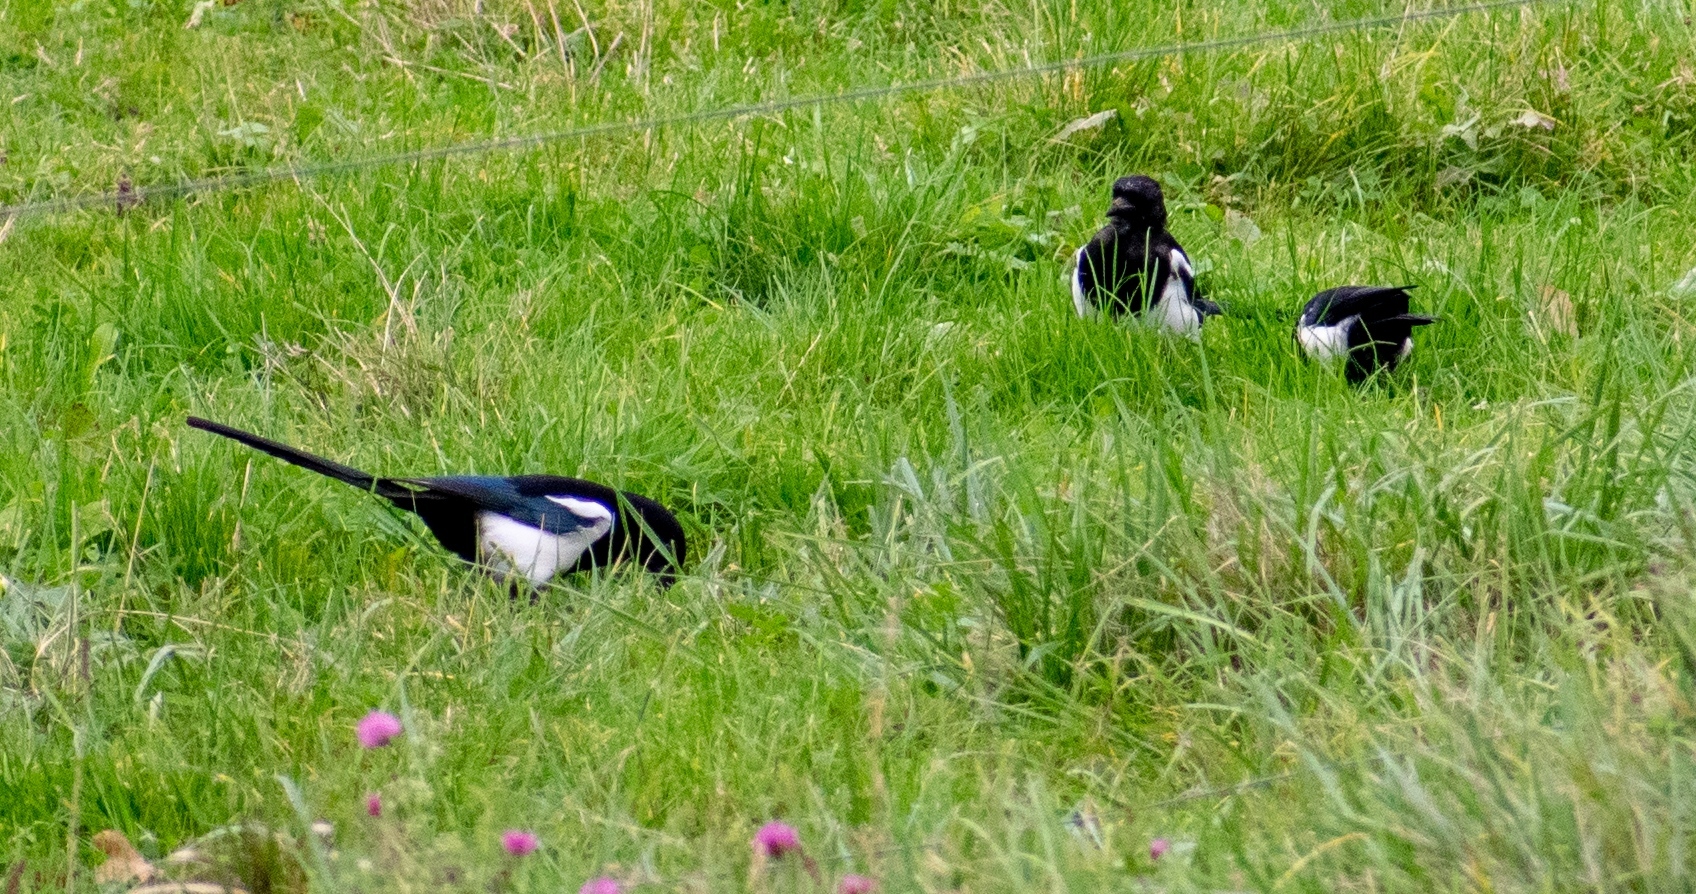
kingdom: Animalia
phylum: Chordata
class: Aves
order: Passeriformes
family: Corvidae
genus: Pica
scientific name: Pica pica
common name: Eurasian magpie
